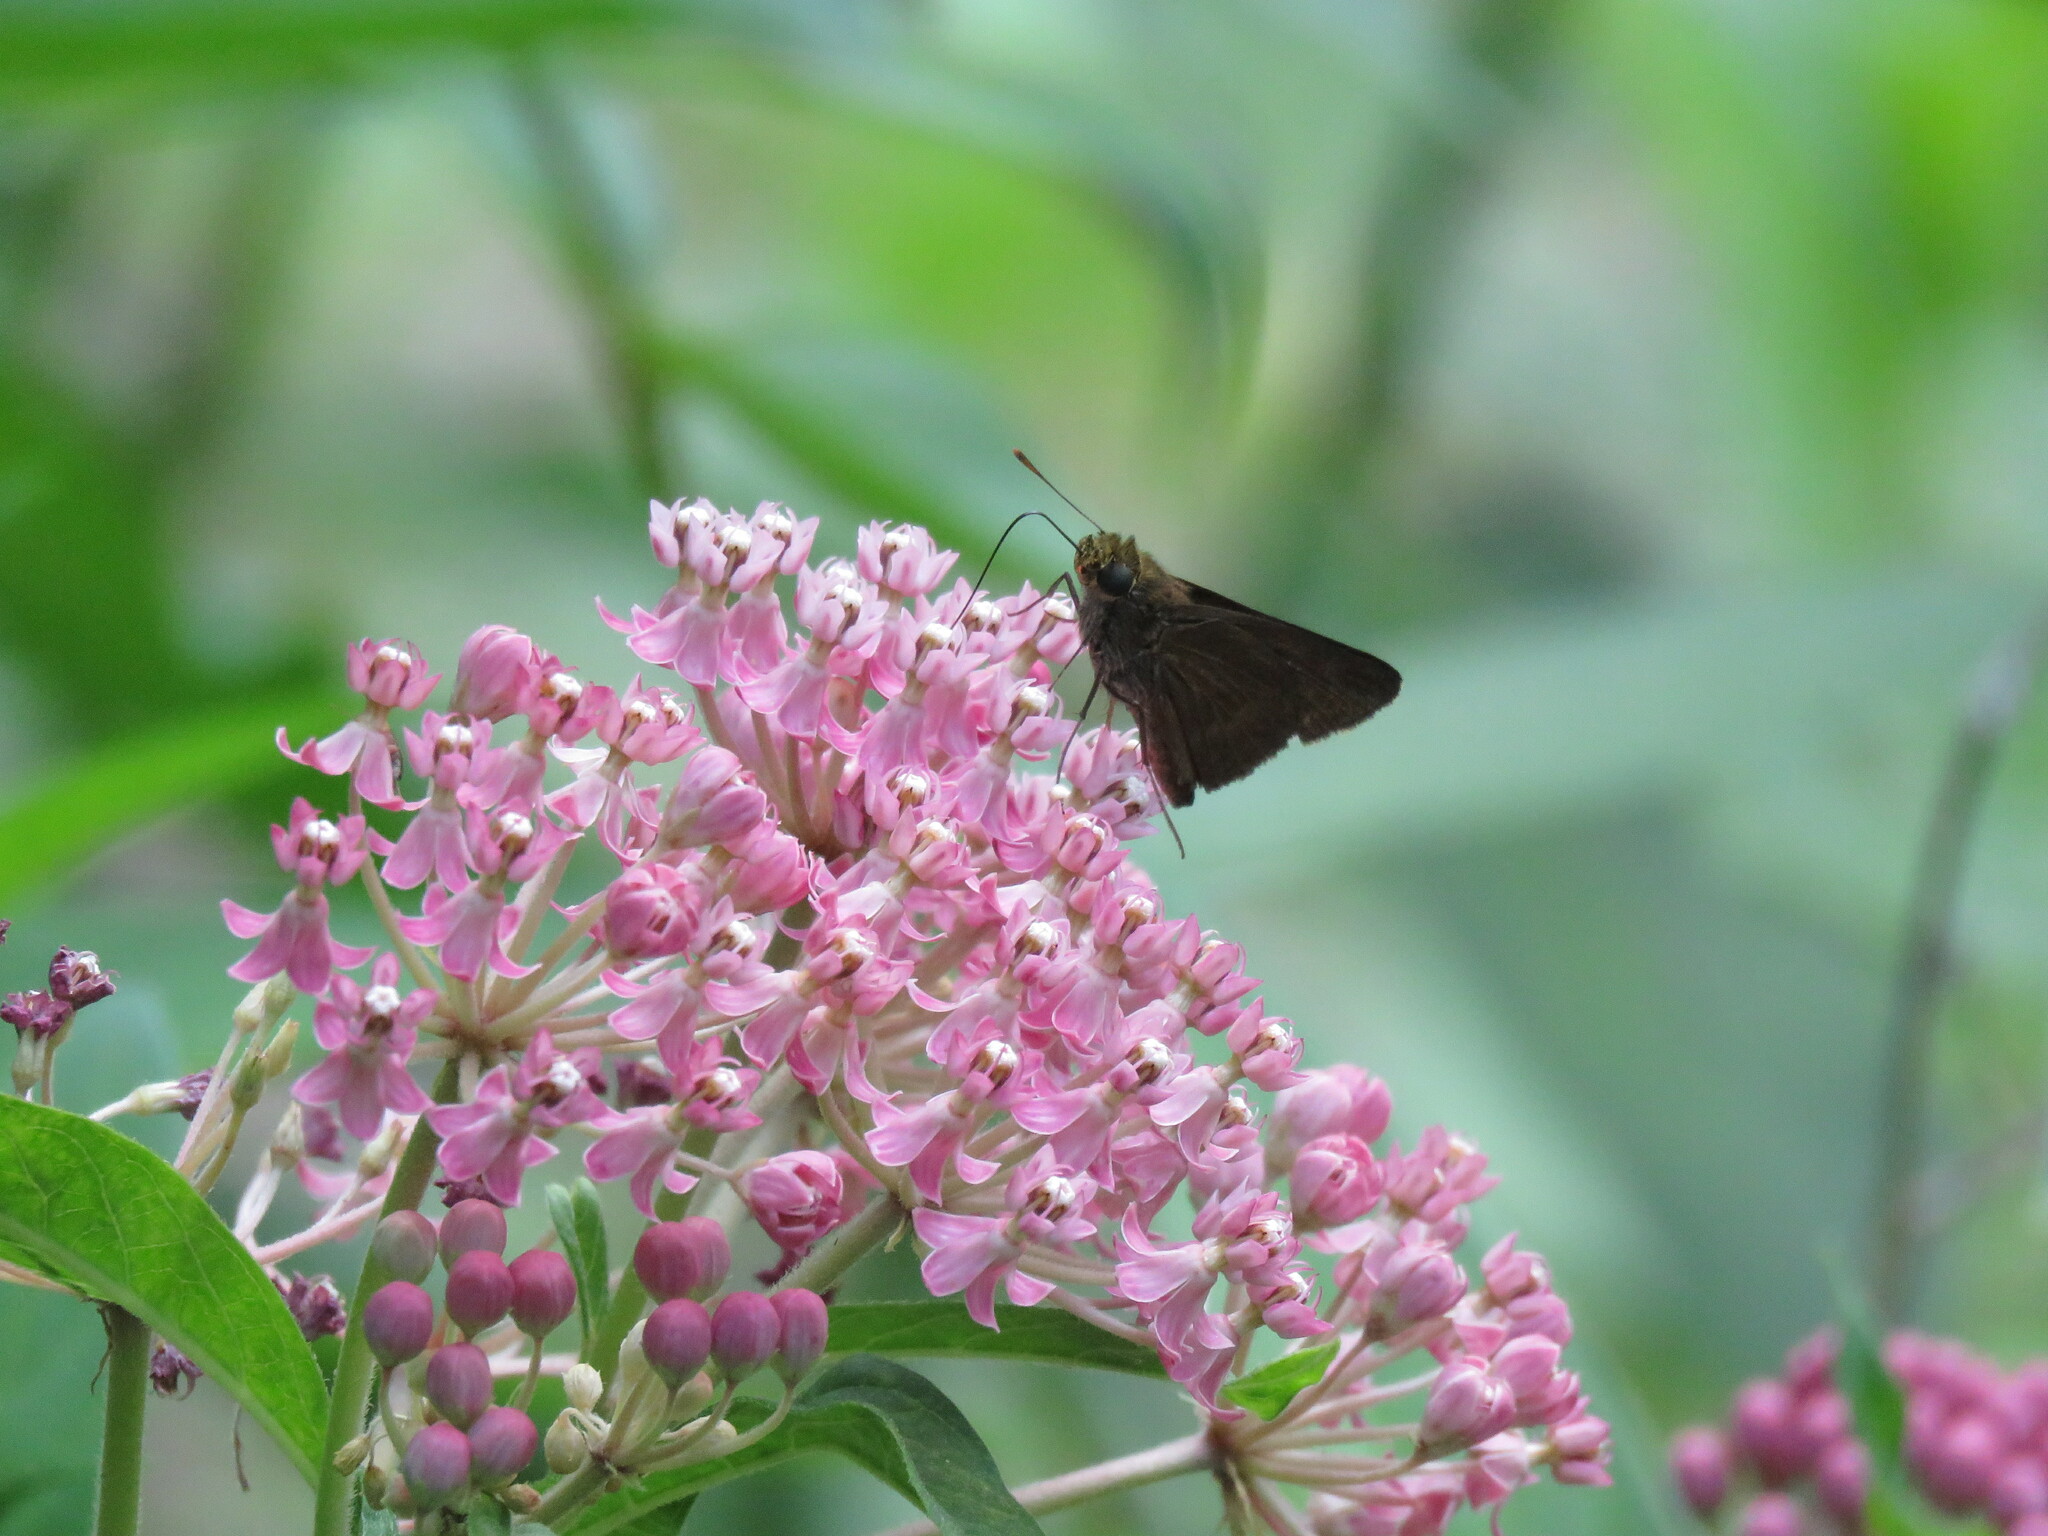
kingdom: Animalia
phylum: Arthropoda
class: Insecta
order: Lepidoptera
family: Hesperiidae
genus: Euphyes
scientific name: Euphyes vestris
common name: Dun skipper
